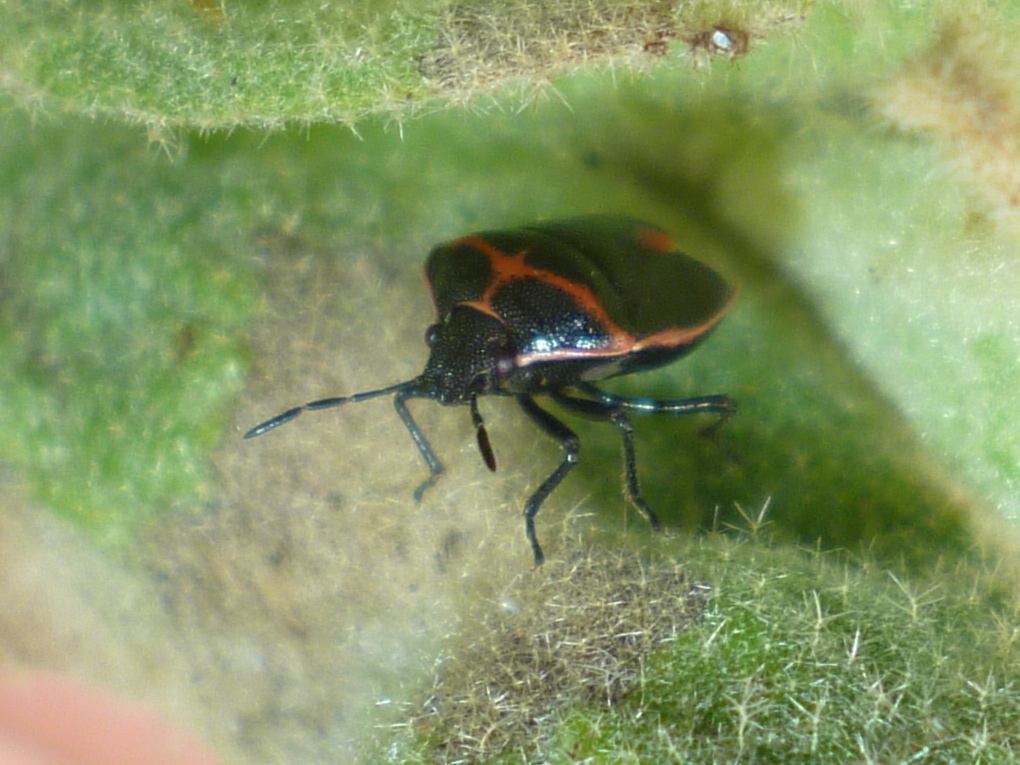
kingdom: Animalia
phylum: Arthropoda
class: Insecta
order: Hemiptera
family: Pentatomidae
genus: Cosmopepla
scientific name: Cosmopepla lintneriana
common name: Twice-stabbed stink bug
